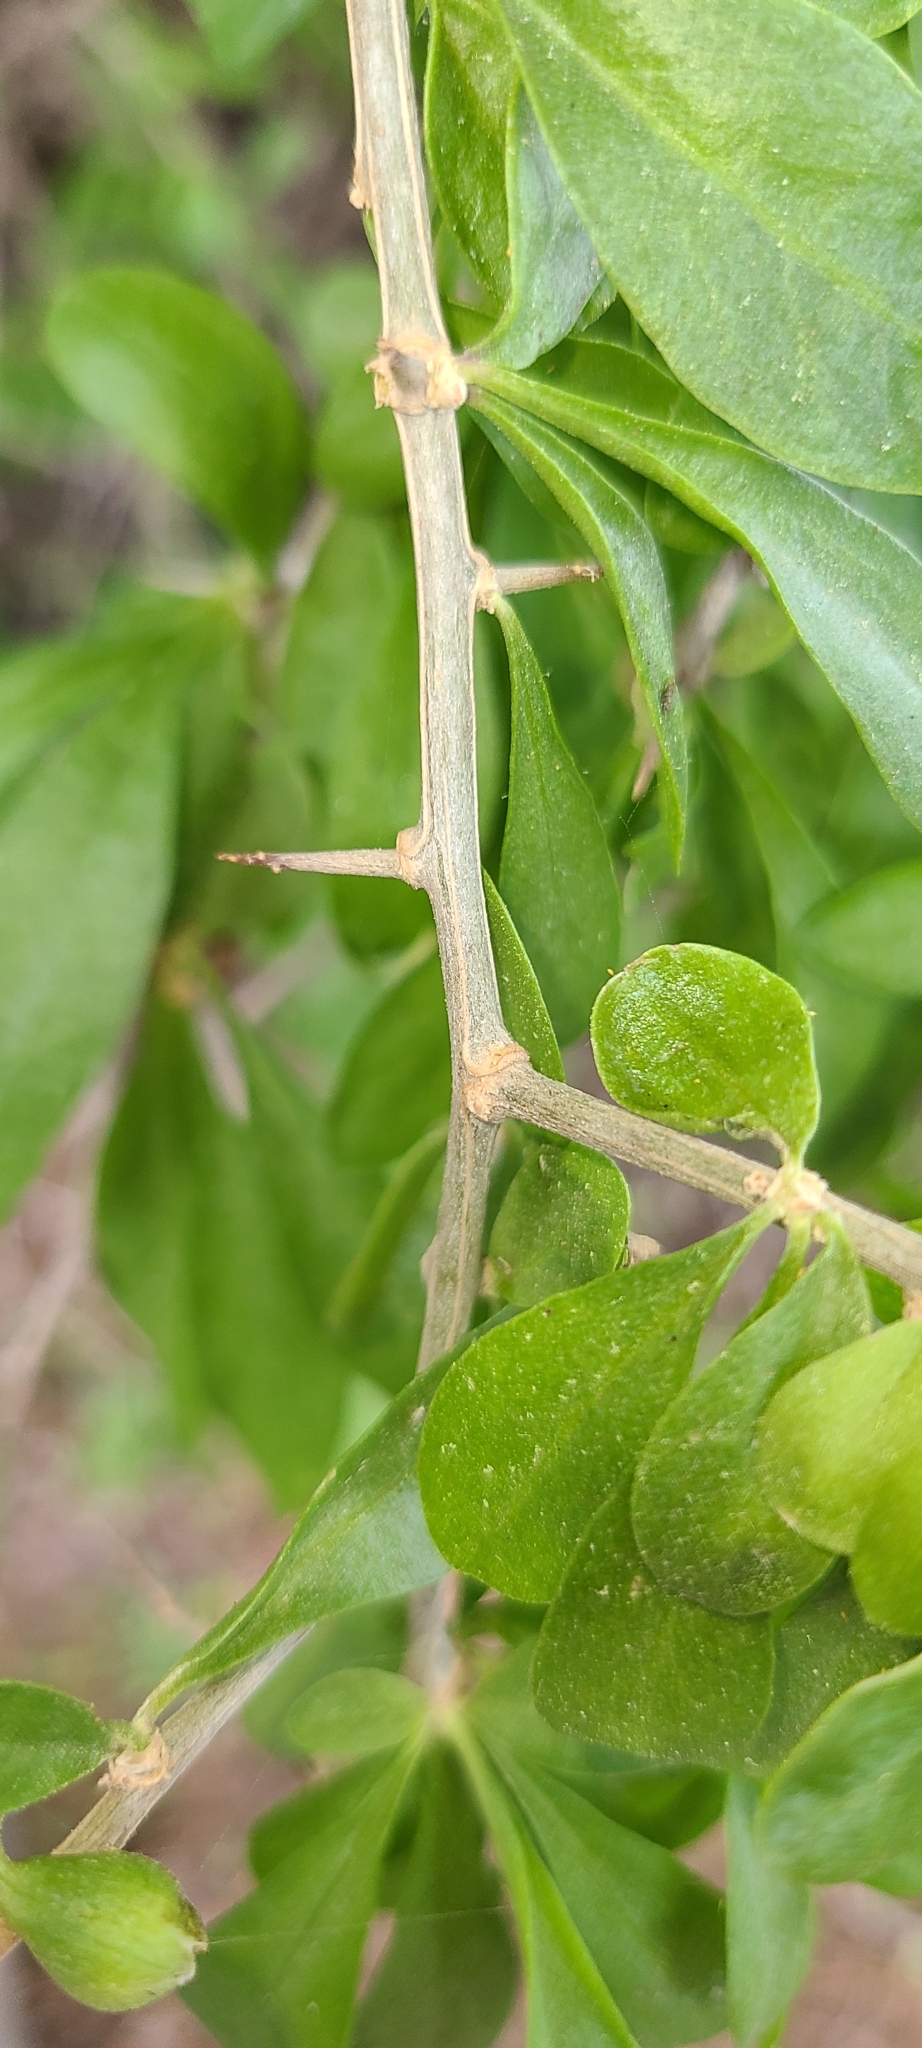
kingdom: Plantae
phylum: Tracheophyta
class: Magnoliopsida
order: Solanales
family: Solanaceae
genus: Lycium
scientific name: Lycium ferocissimum
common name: African boxthorn
